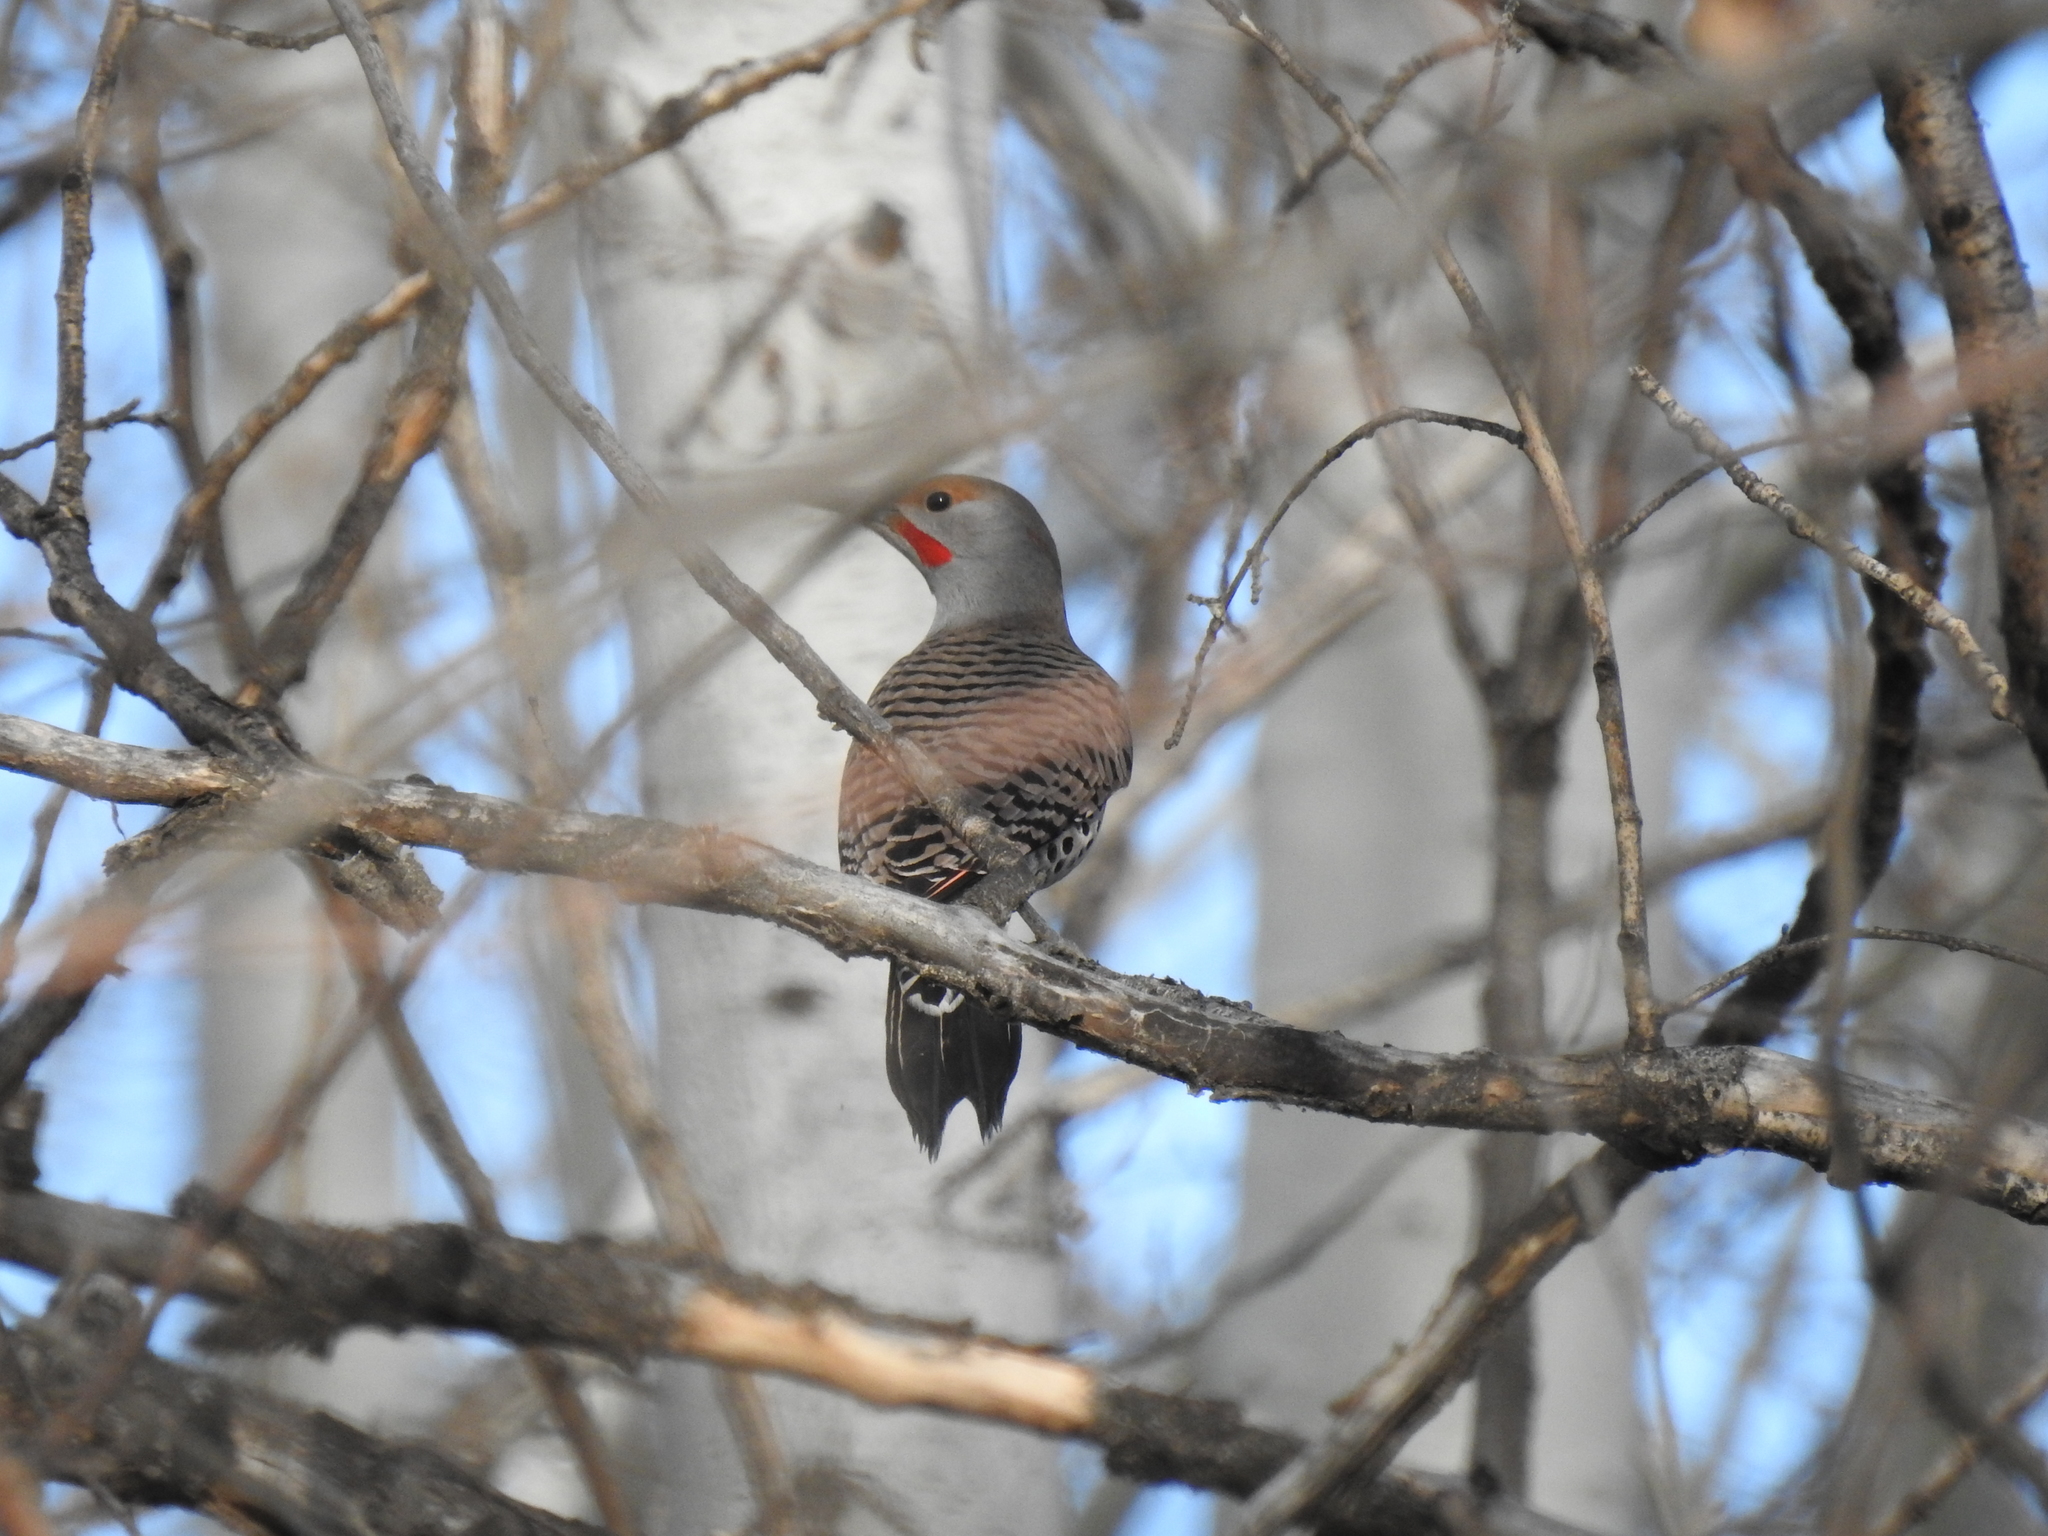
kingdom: Animalia
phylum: Chordata
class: Aves
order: Piciformes
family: Picidae
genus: Colaptes
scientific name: Colaptes auratus
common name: Northern flicker
